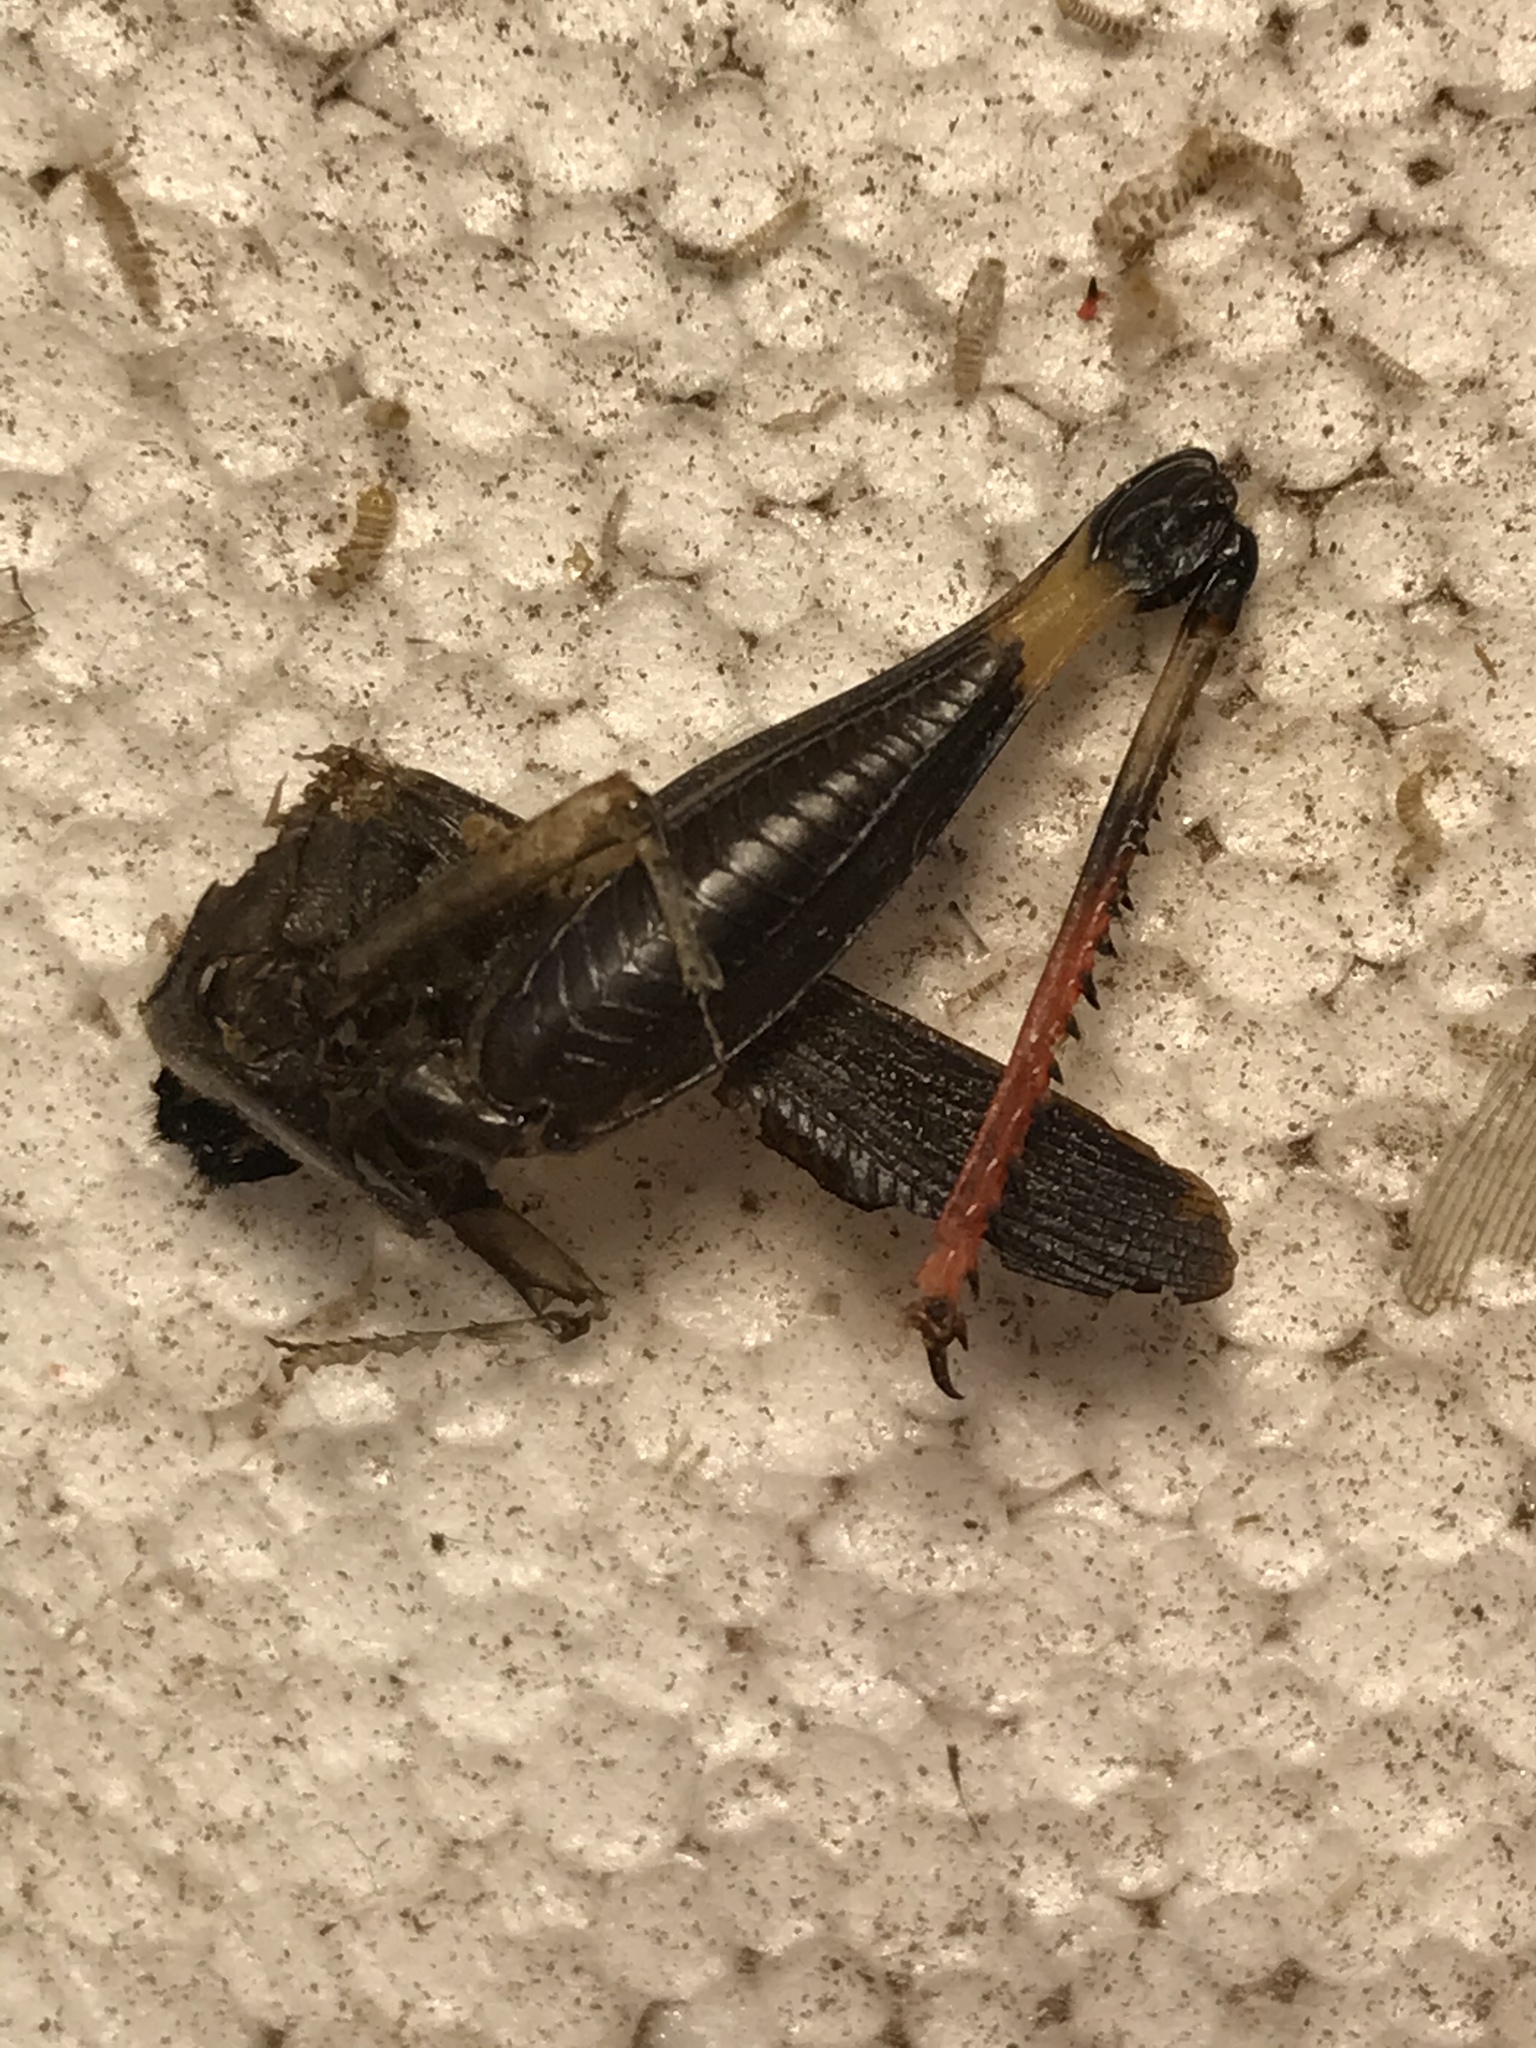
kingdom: Animalia
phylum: Arthropoda
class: Insecta
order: Orthoptera
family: Acrididae
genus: Boopedon
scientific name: Boopedon nubilum
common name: Ebony grasshopper
